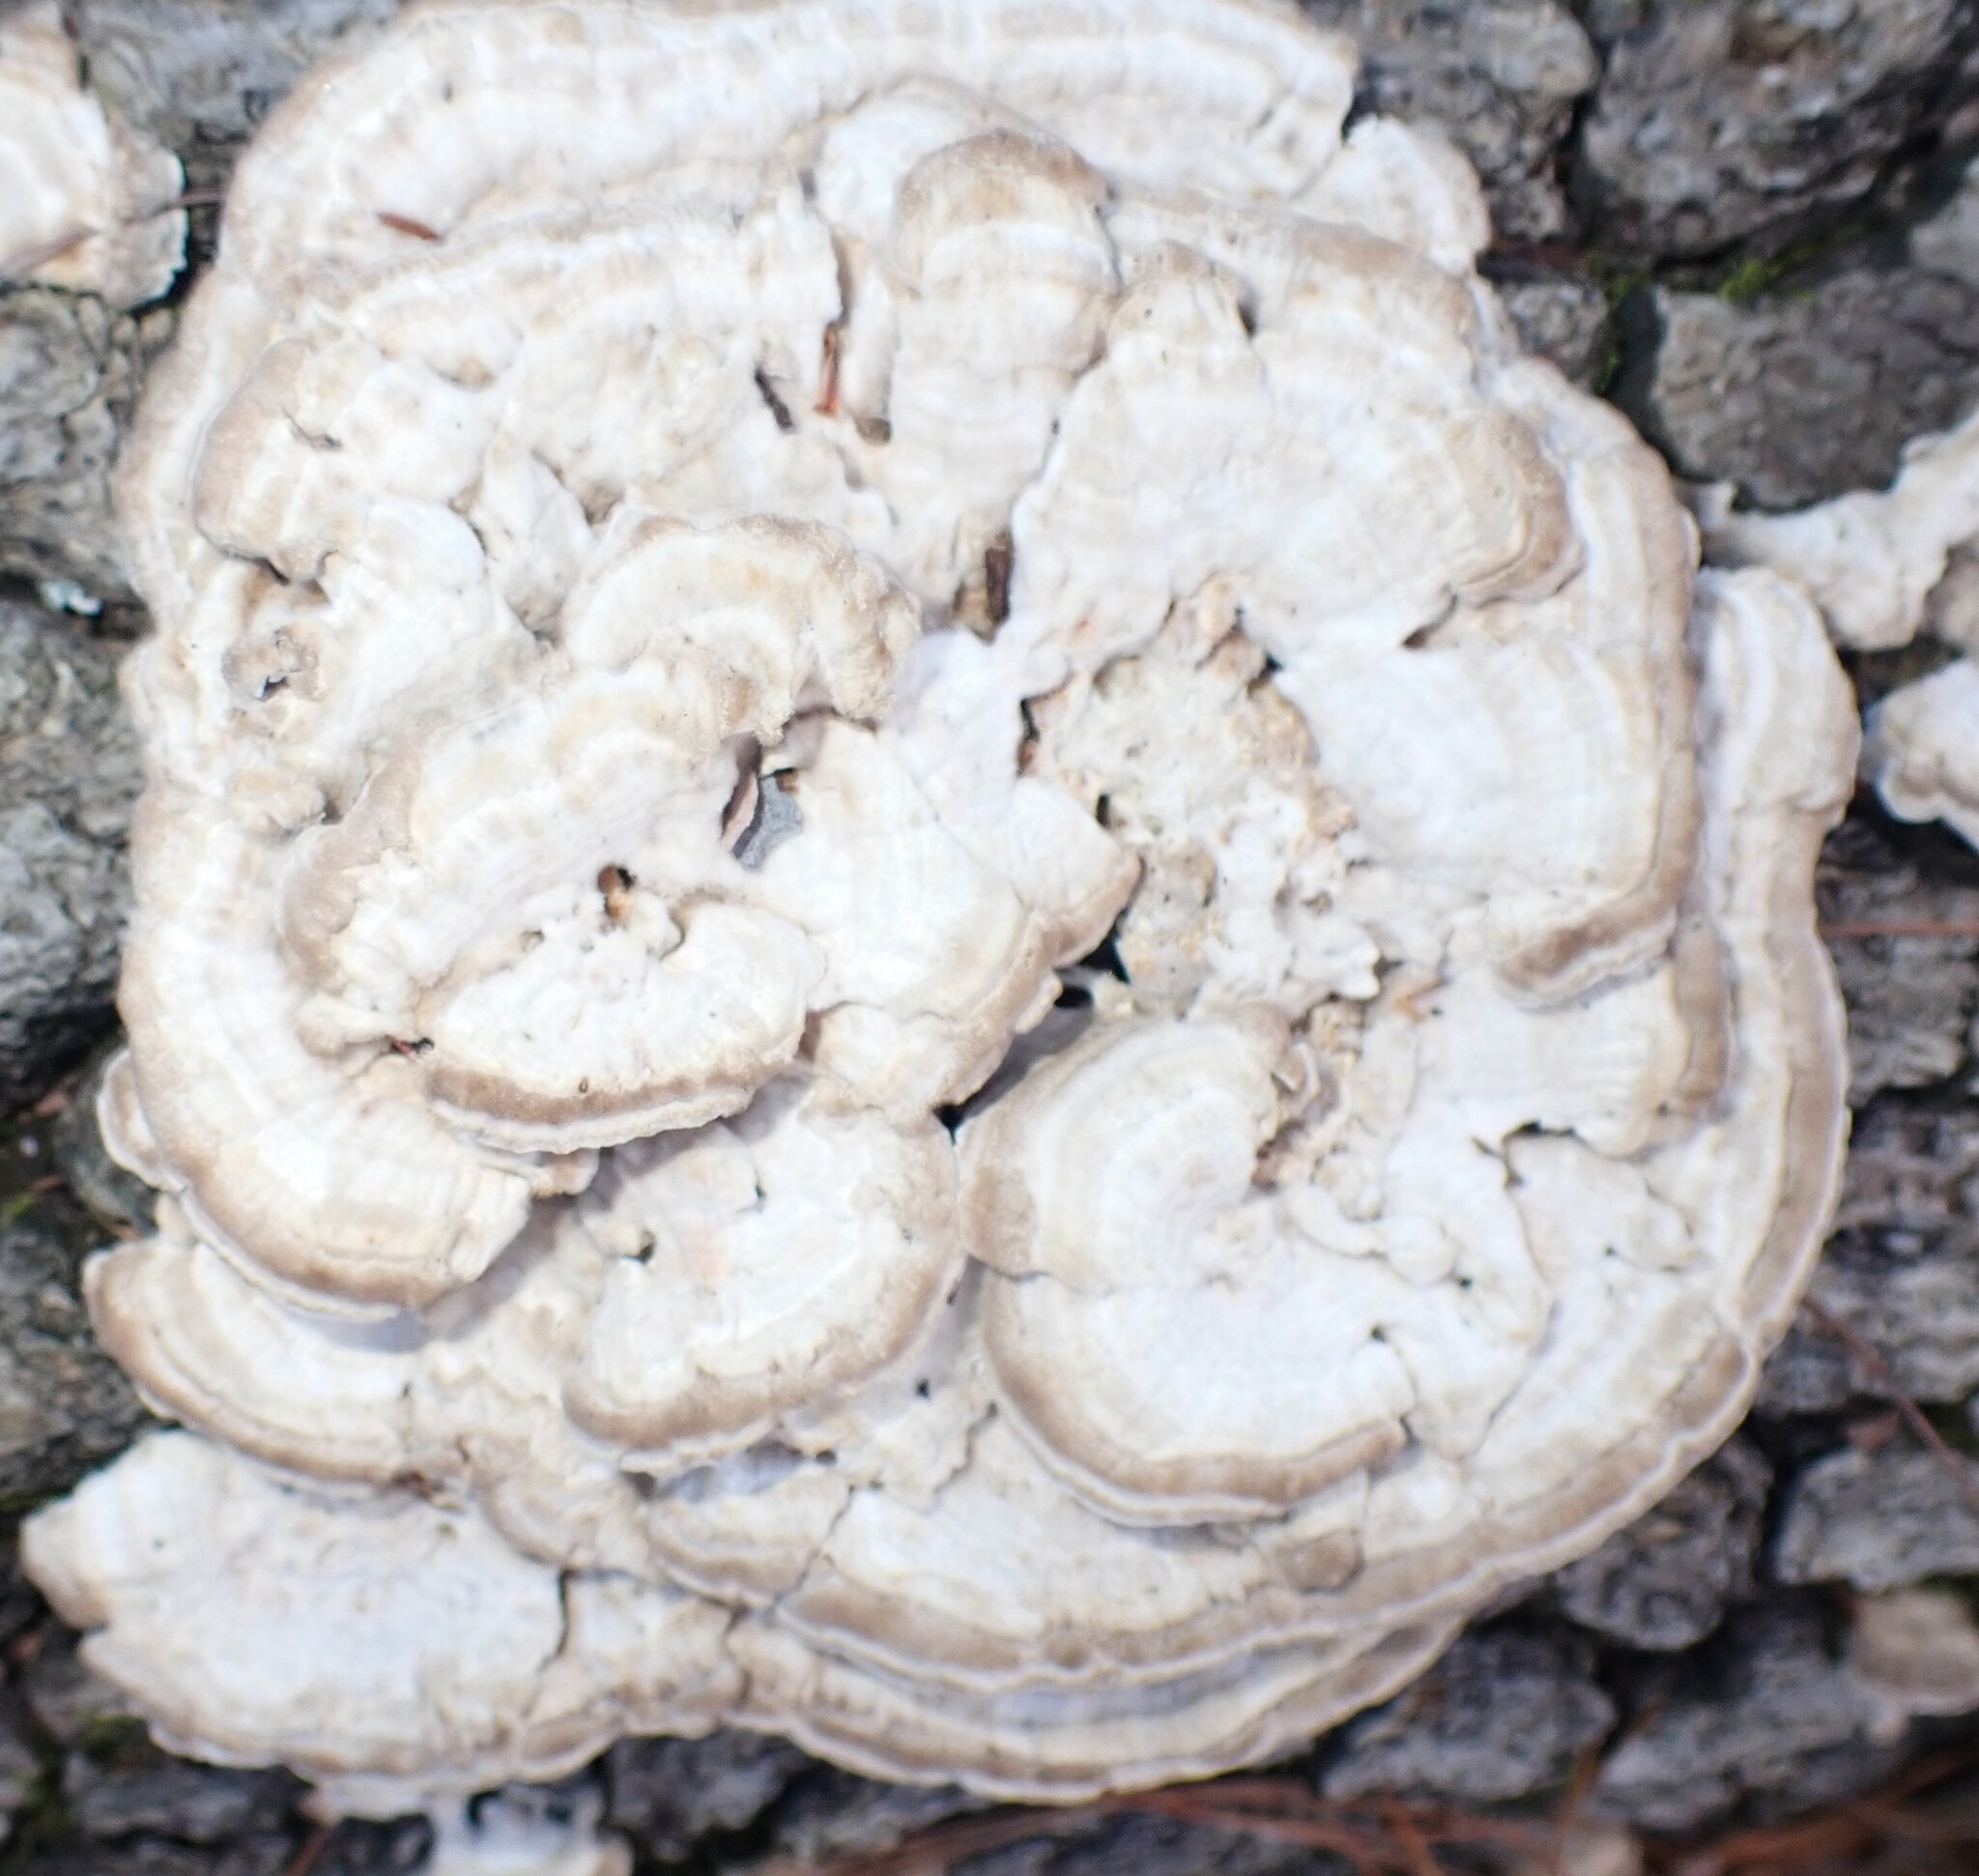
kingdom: Fungi
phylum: Basidiomycota
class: Agaricomycetes
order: Polyporales
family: Polyporaceae
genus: Lenzites
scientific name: Lenzites betulinus
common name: Birch mazegill
